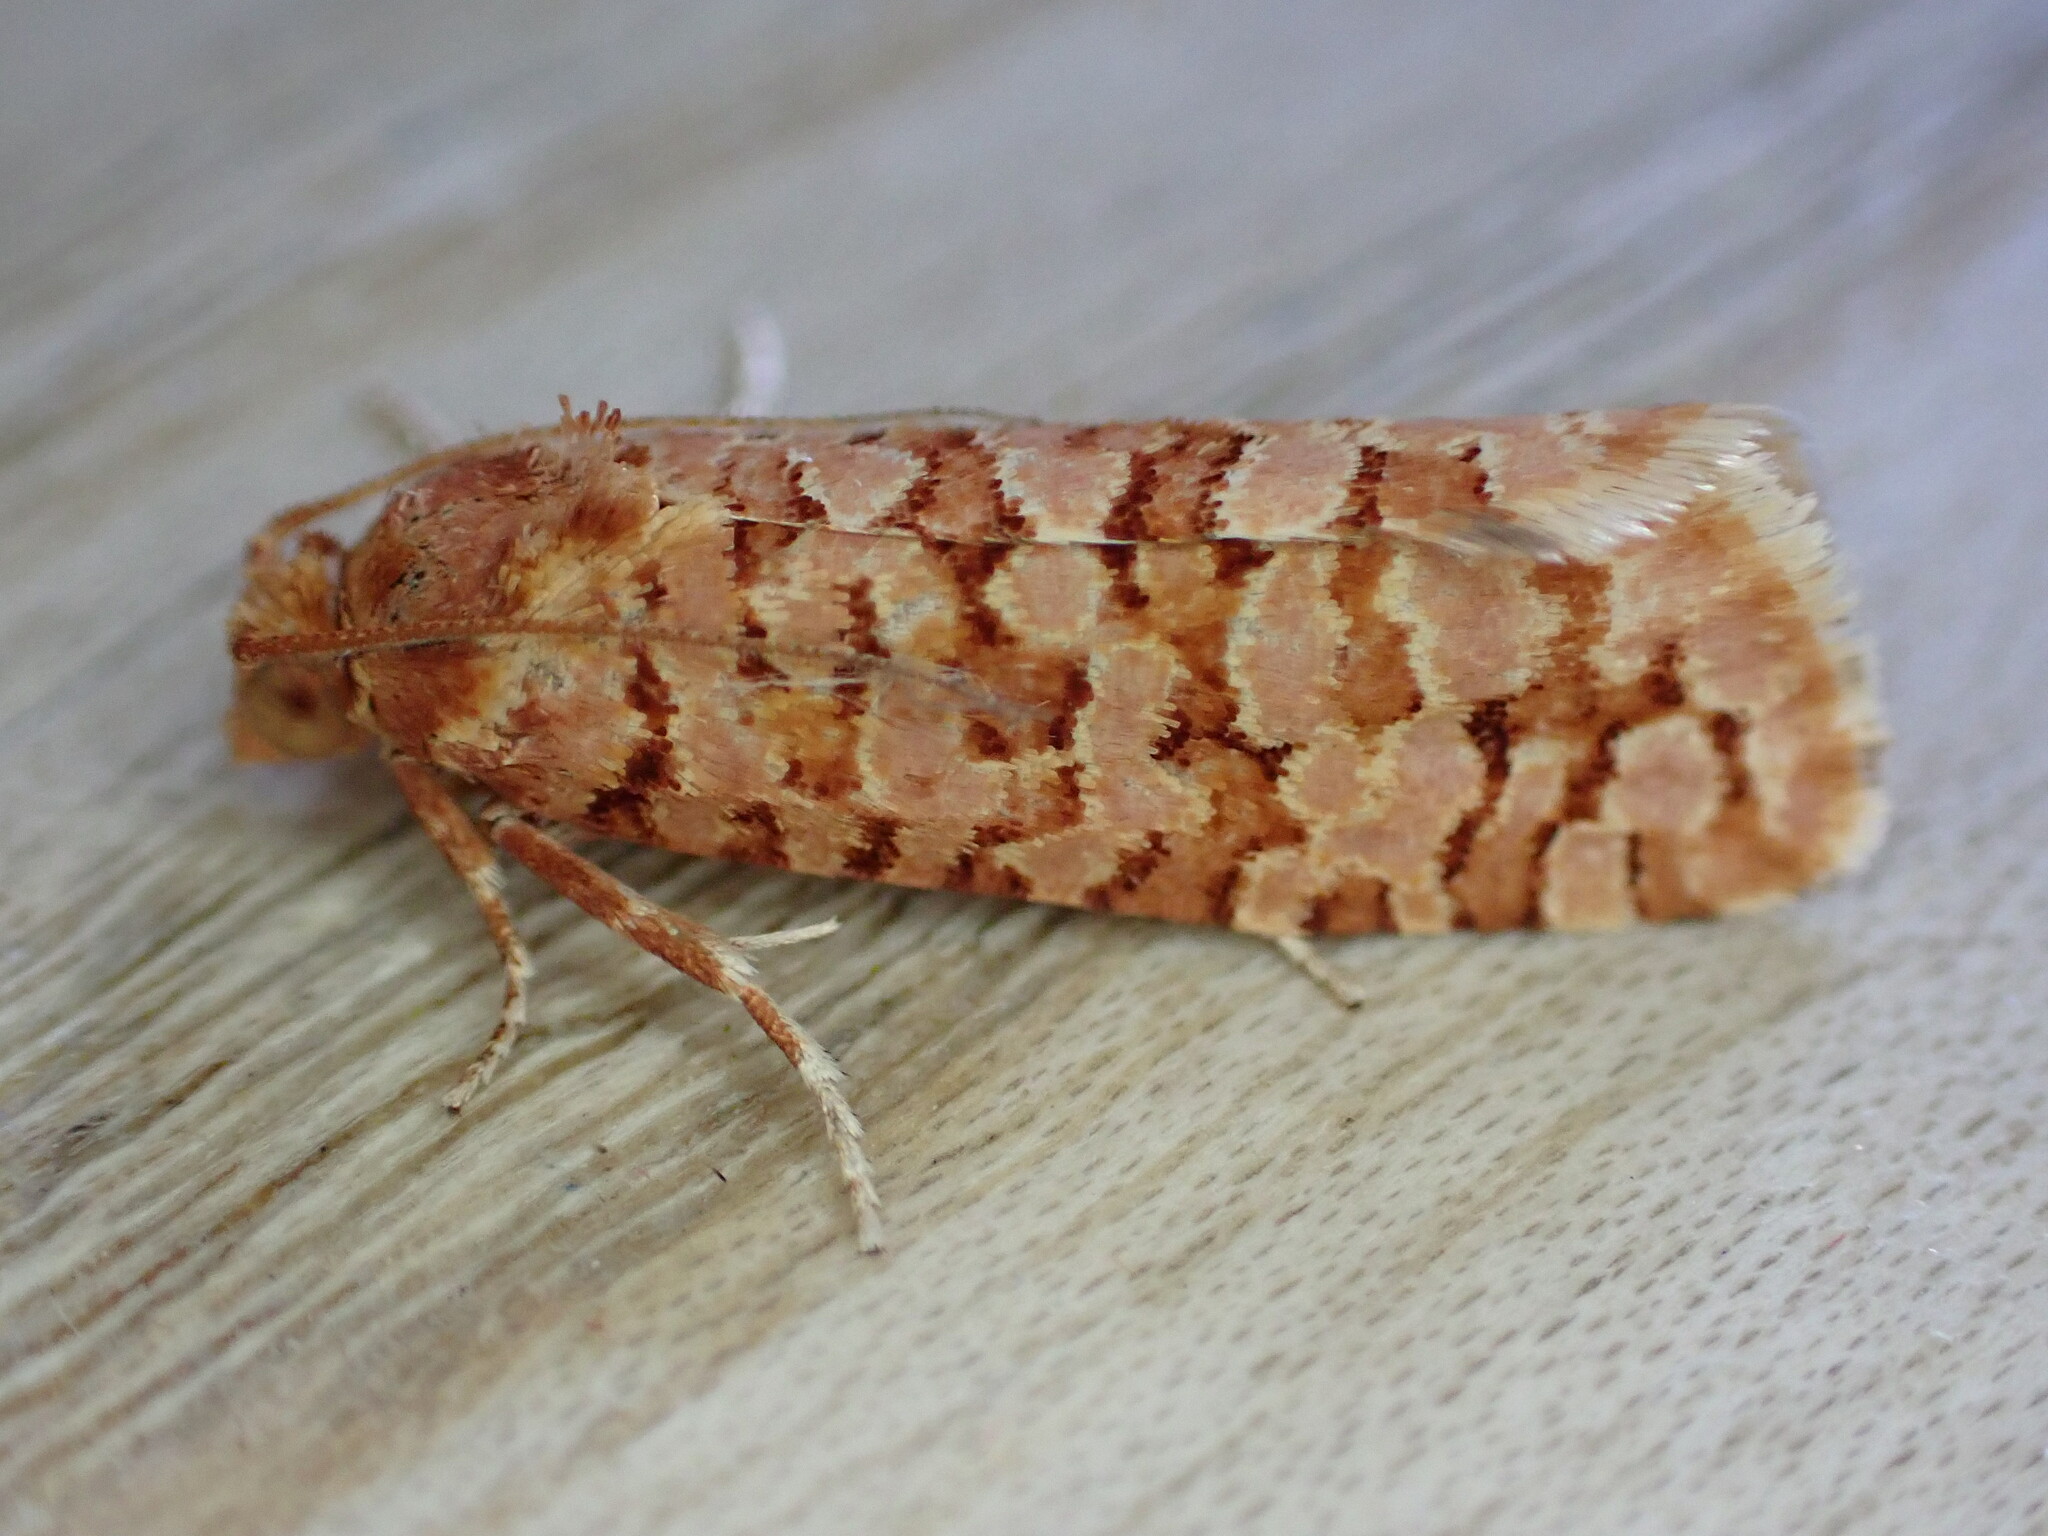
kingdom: Animalia
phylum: Arthropoda
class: Insecta
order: Lepidoptera
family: Tortricidae
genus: Lozotaeniodes
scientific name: Lozotaeniodes formosana
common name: Orange pine twist
